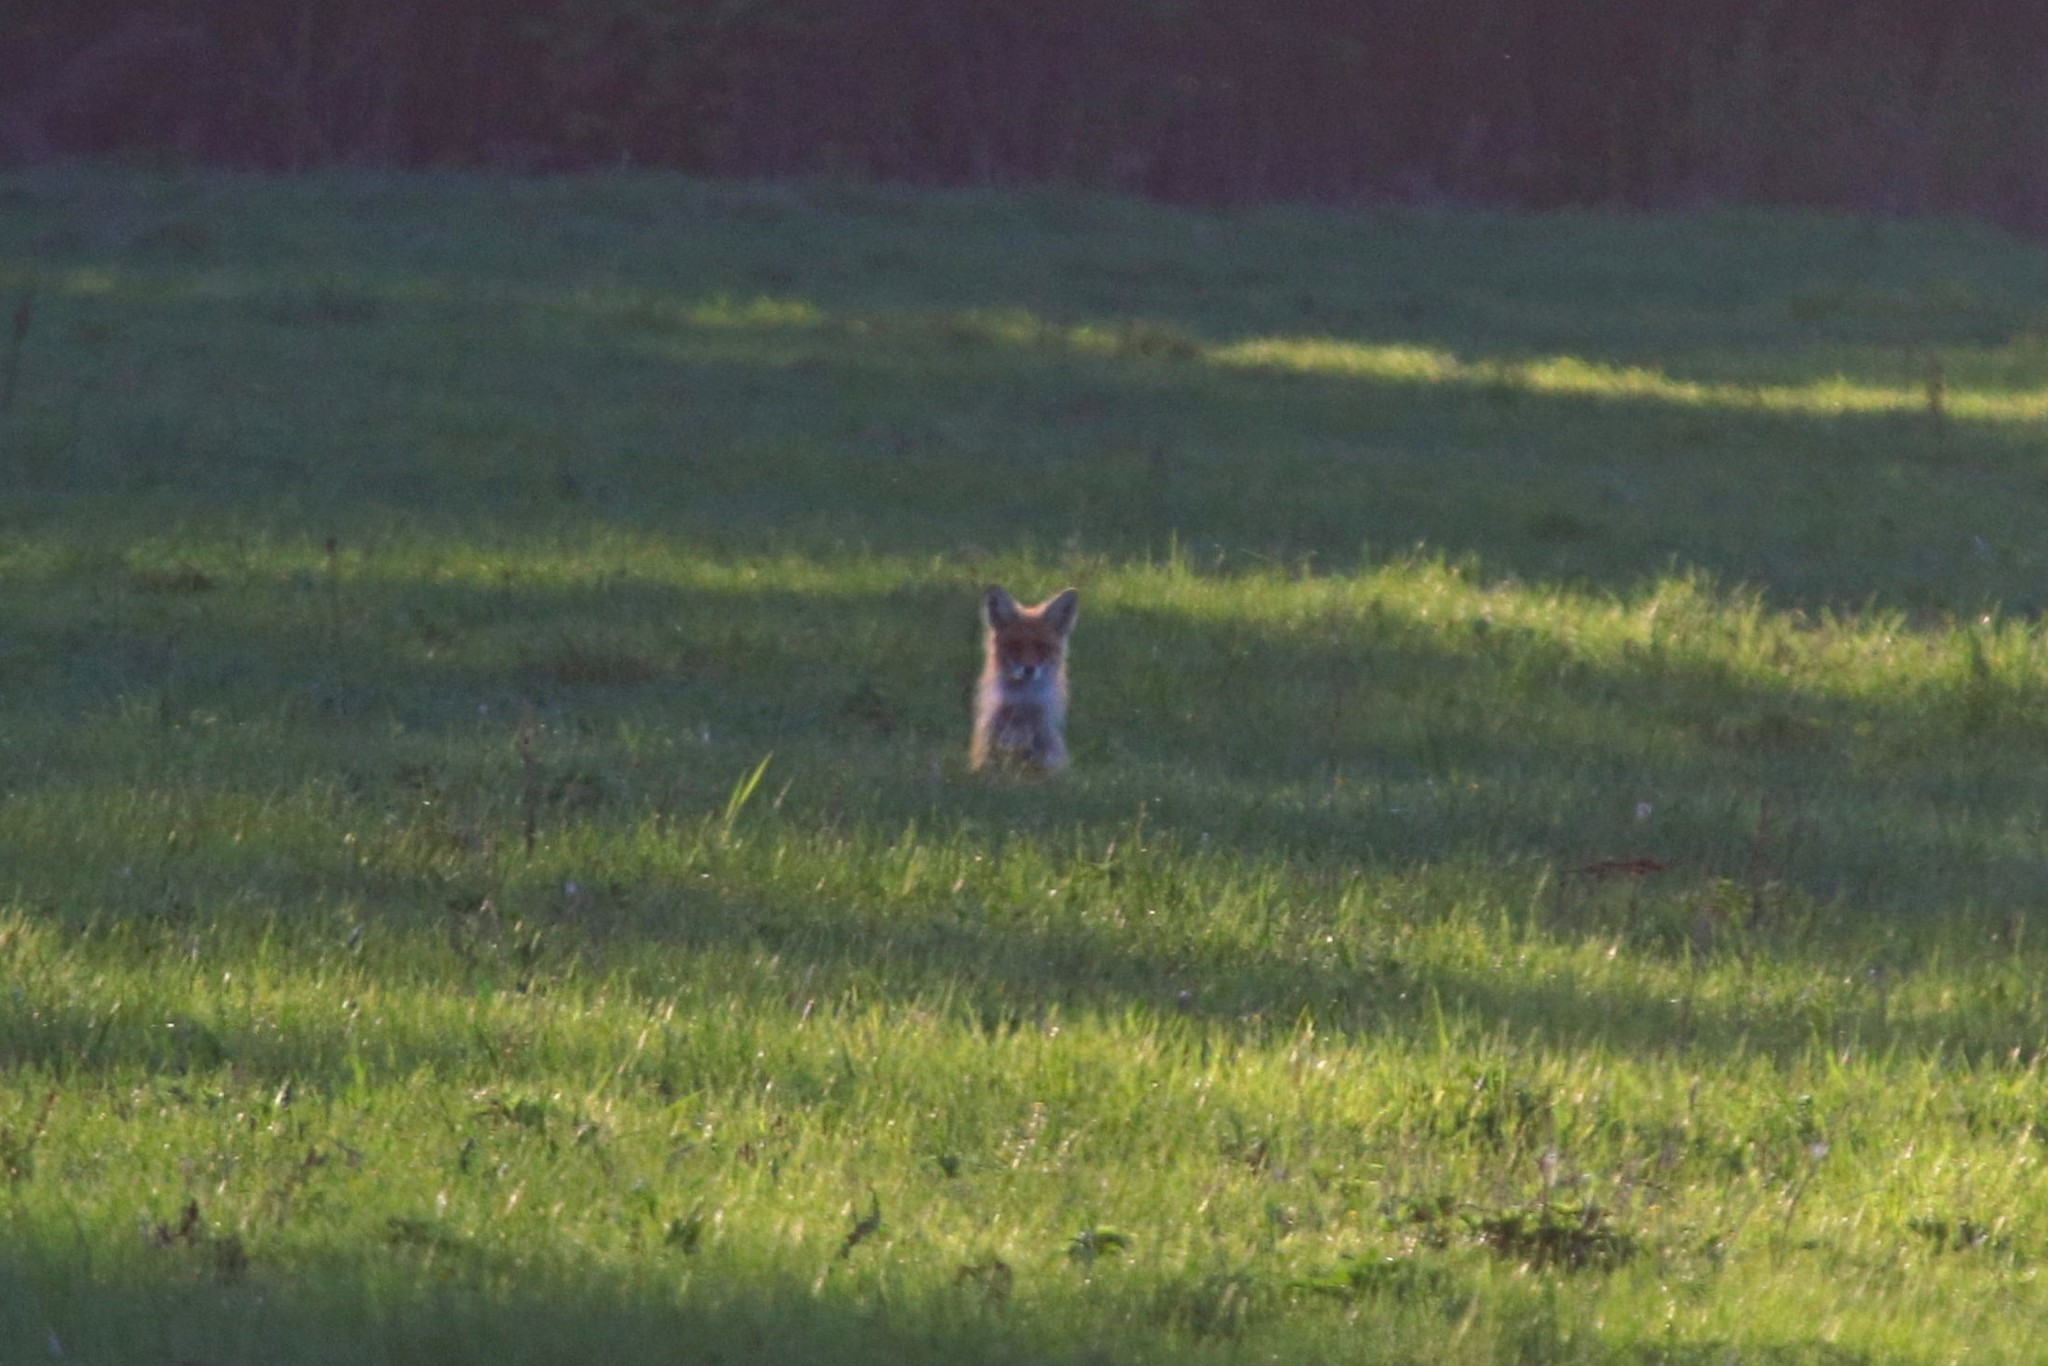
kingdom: Animalia
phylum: Chordata
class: Mammalia
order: Carnivora
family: Canidae
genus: Vulpes
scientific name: Vulpes vulpes
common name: Red fox
